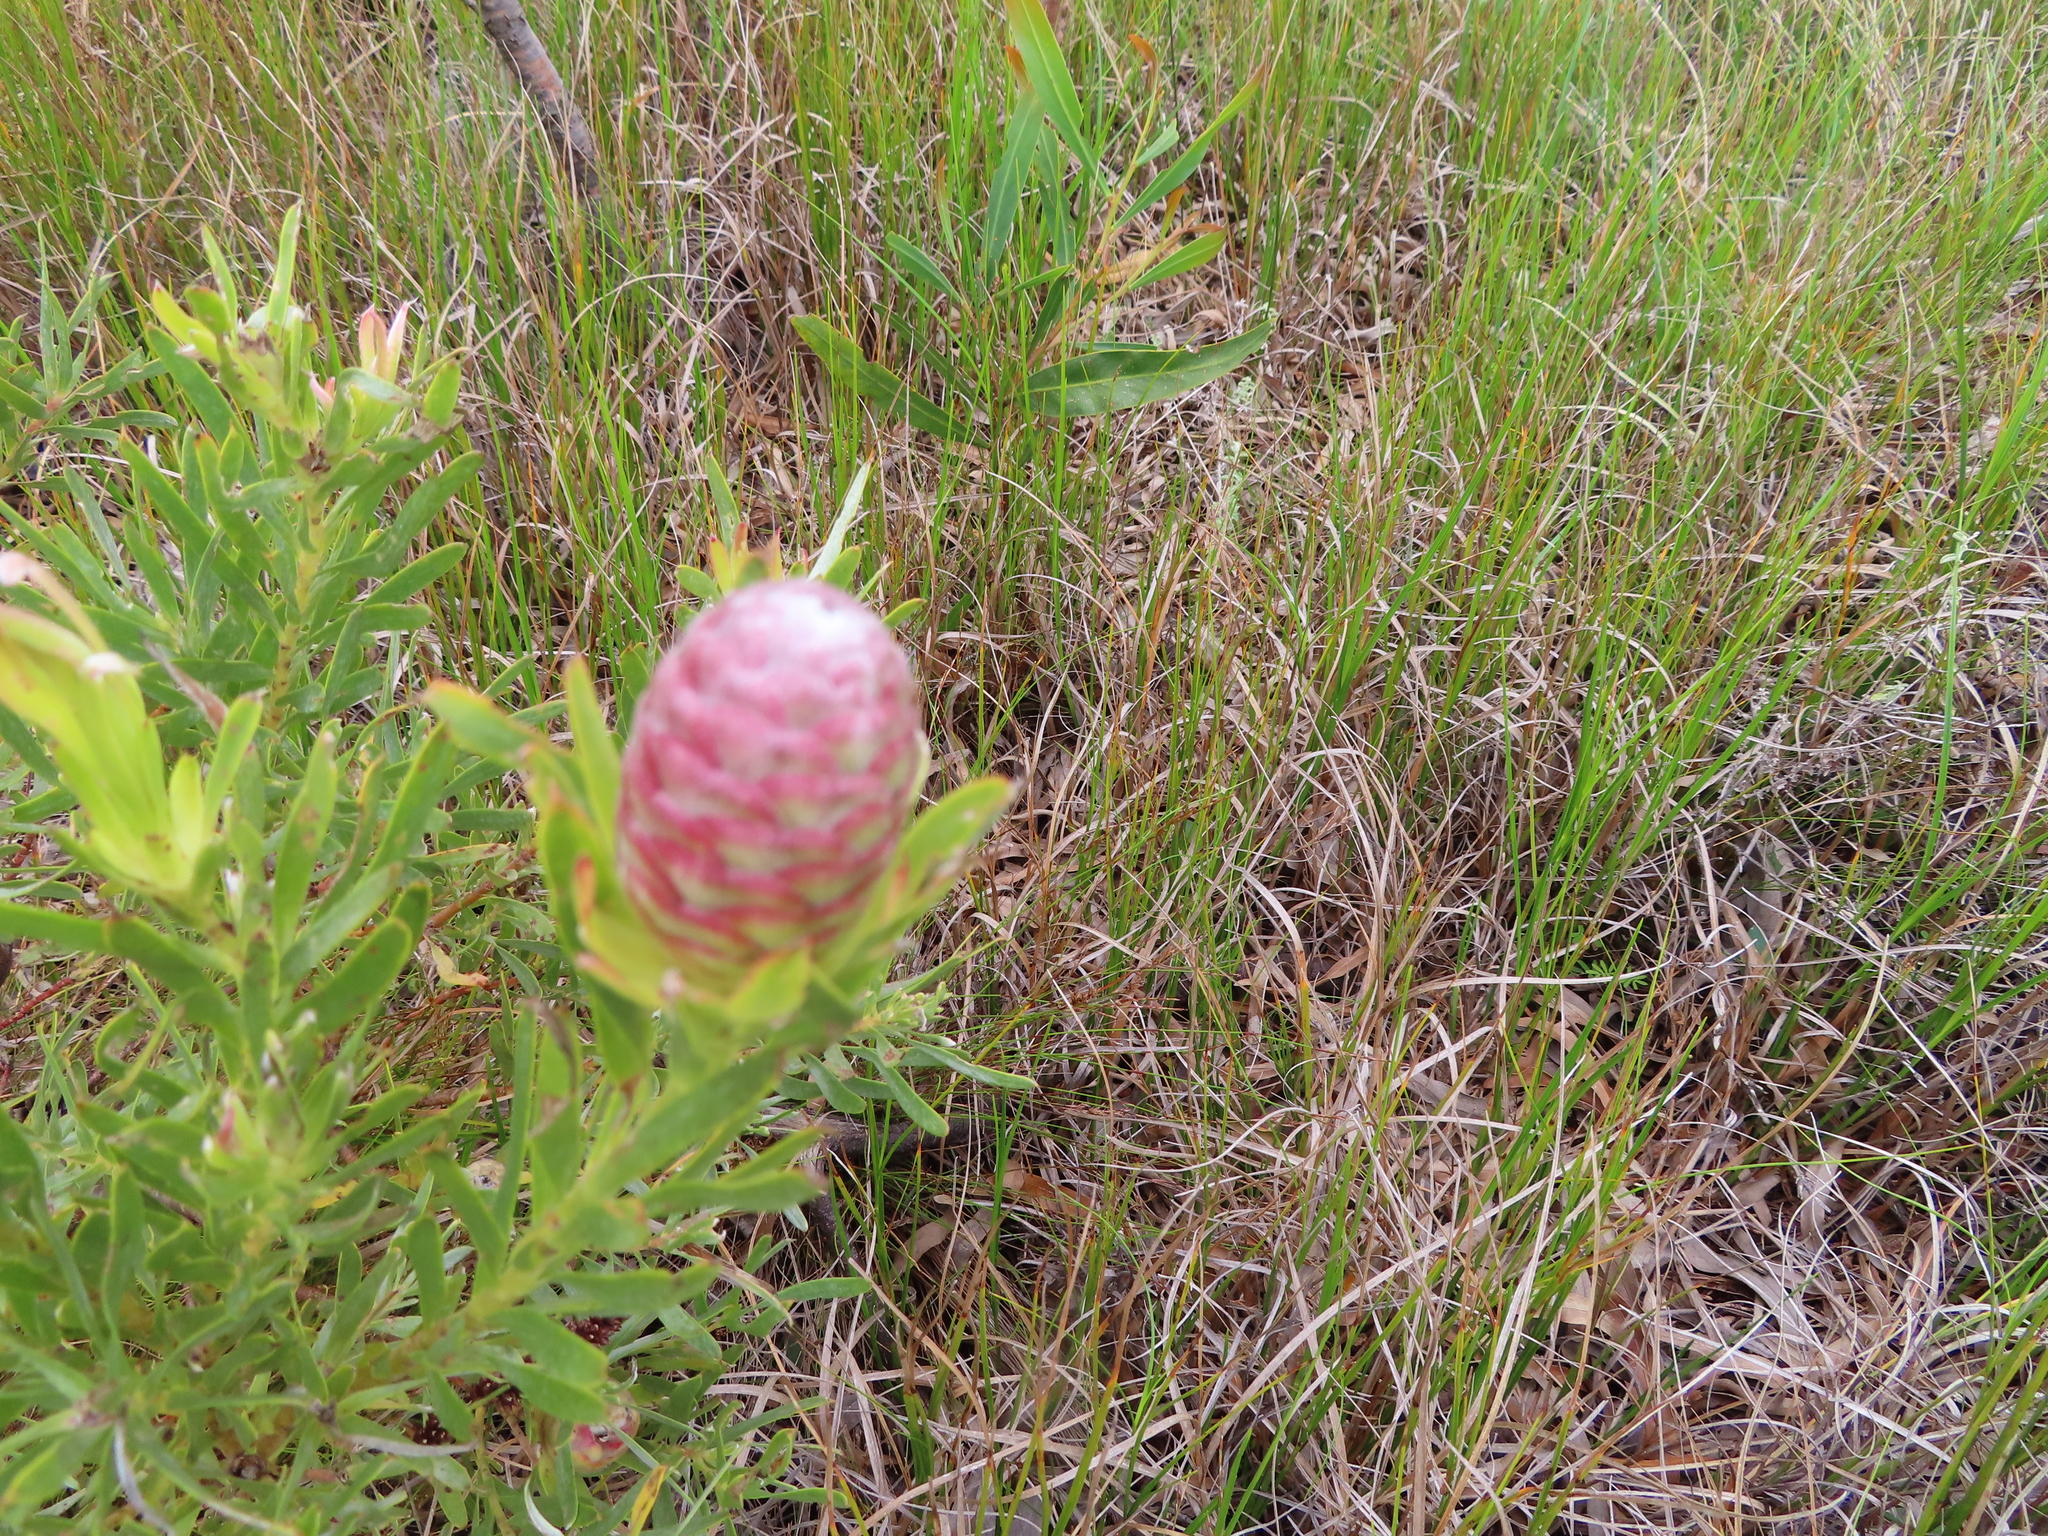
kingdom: Plantae
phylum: Tracheophyta
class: Magnoliopsida
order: Proteales
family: Proteaceae
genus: Leucadendron
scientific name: Leucadendron xanthoconus
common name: Sickle-leaf conebush
